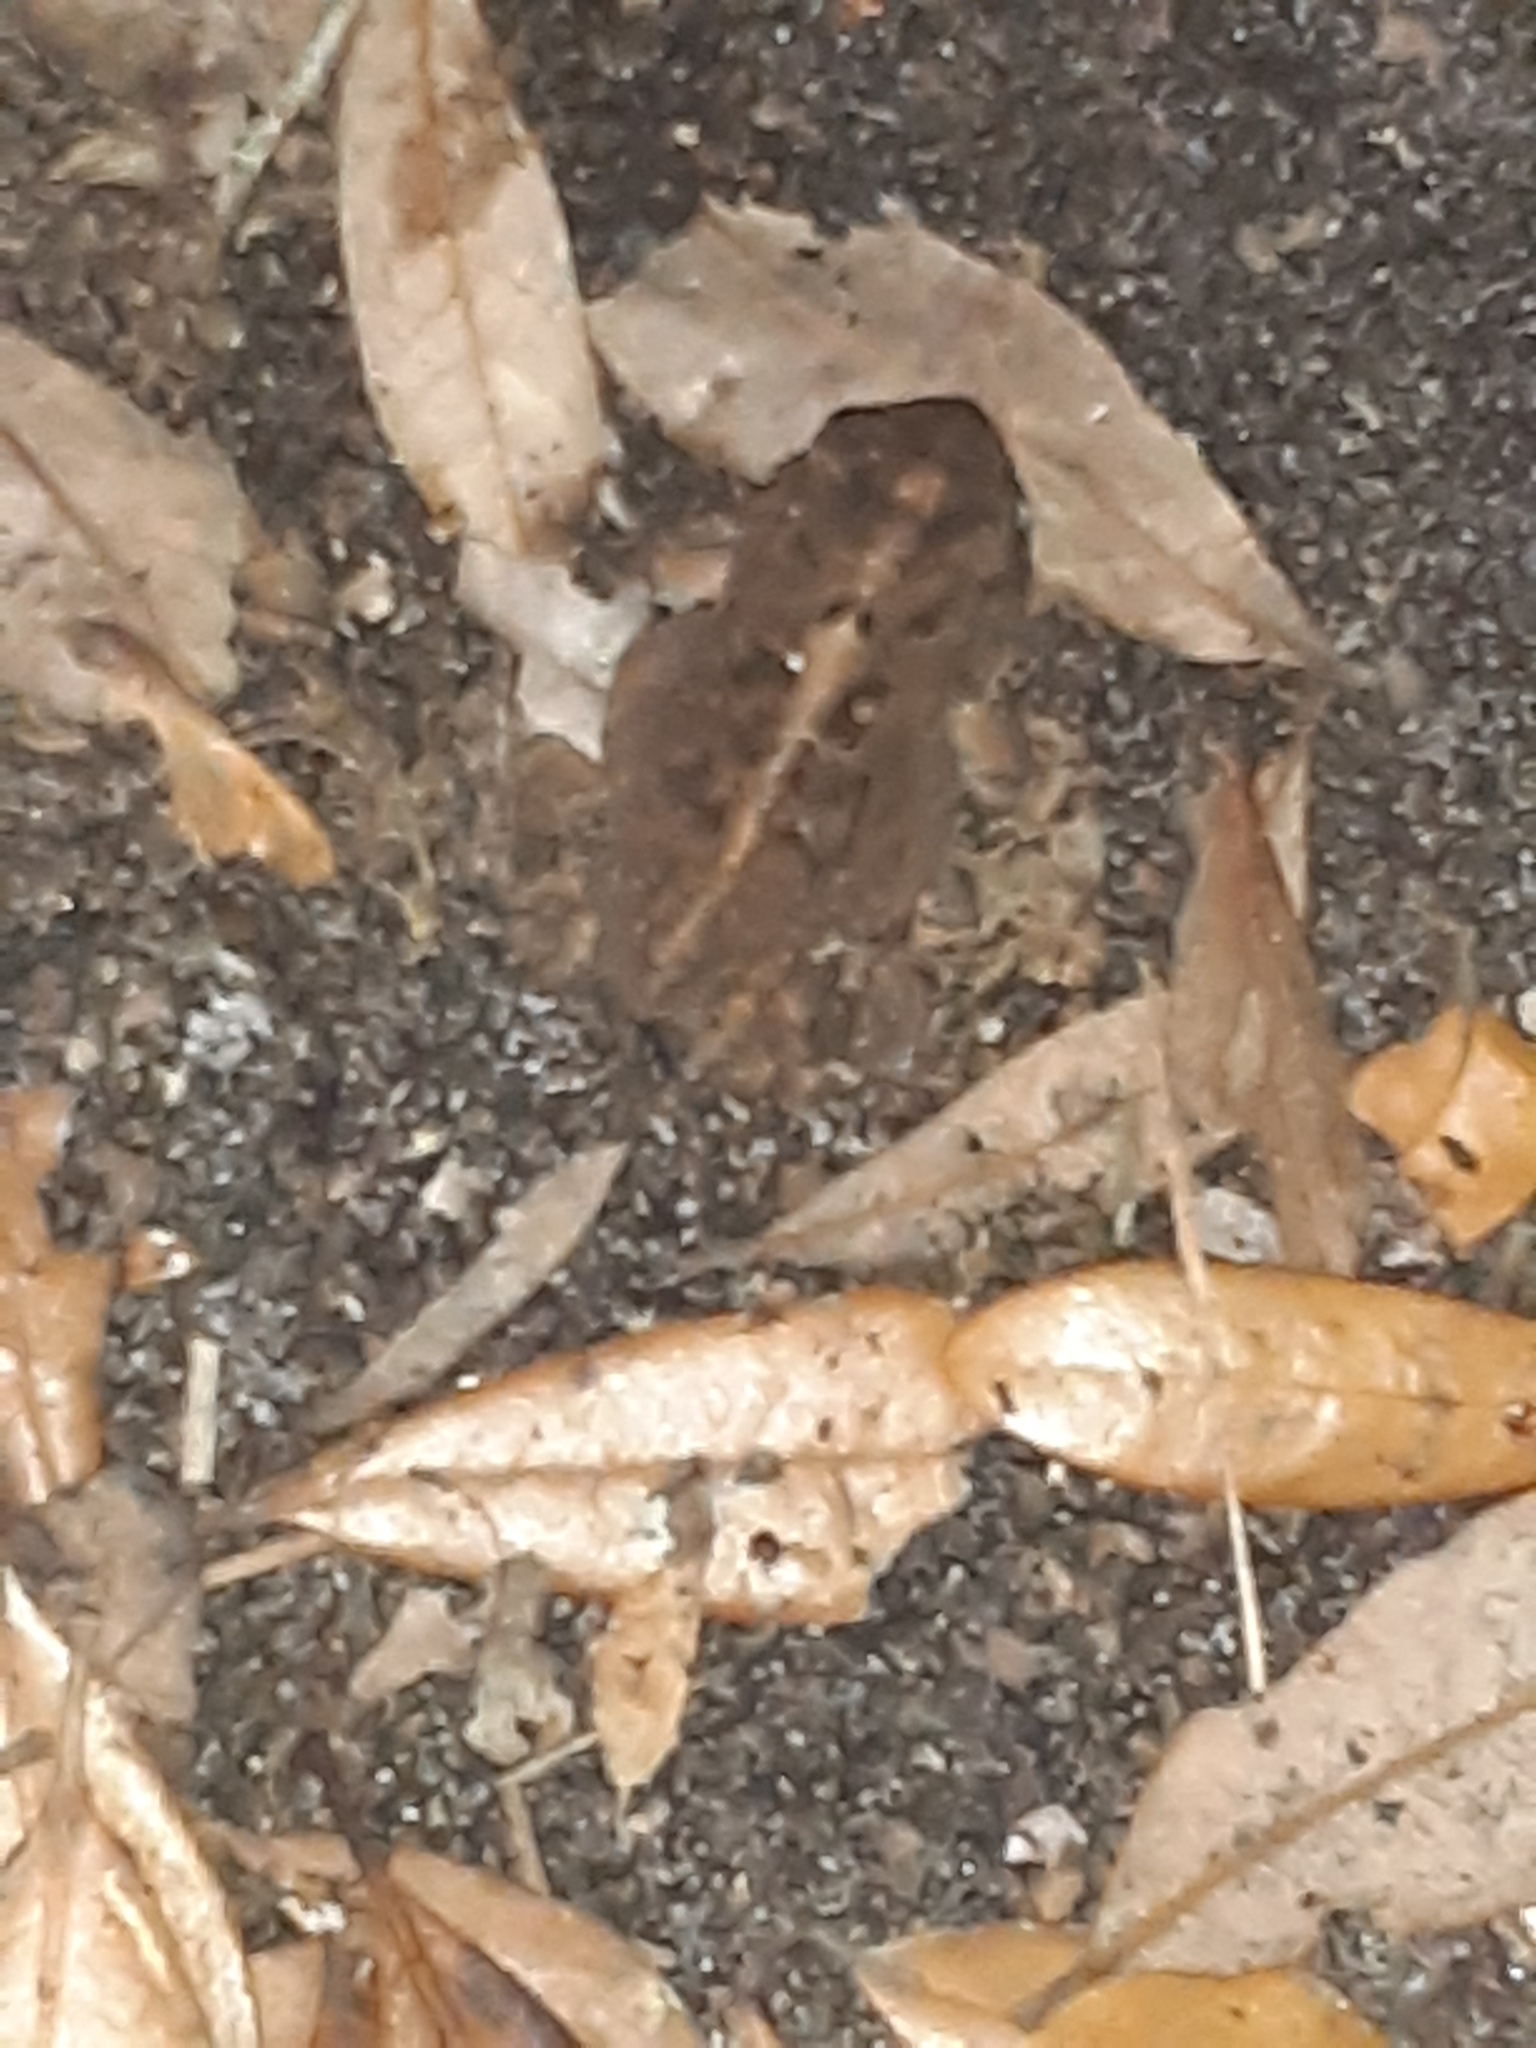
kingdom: Animalia
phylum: Chordata
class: Amphibia
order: Anura
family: Bufonidae
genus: Anaxyrus
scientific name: Anaxyrus terrestris
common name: Southern toad
